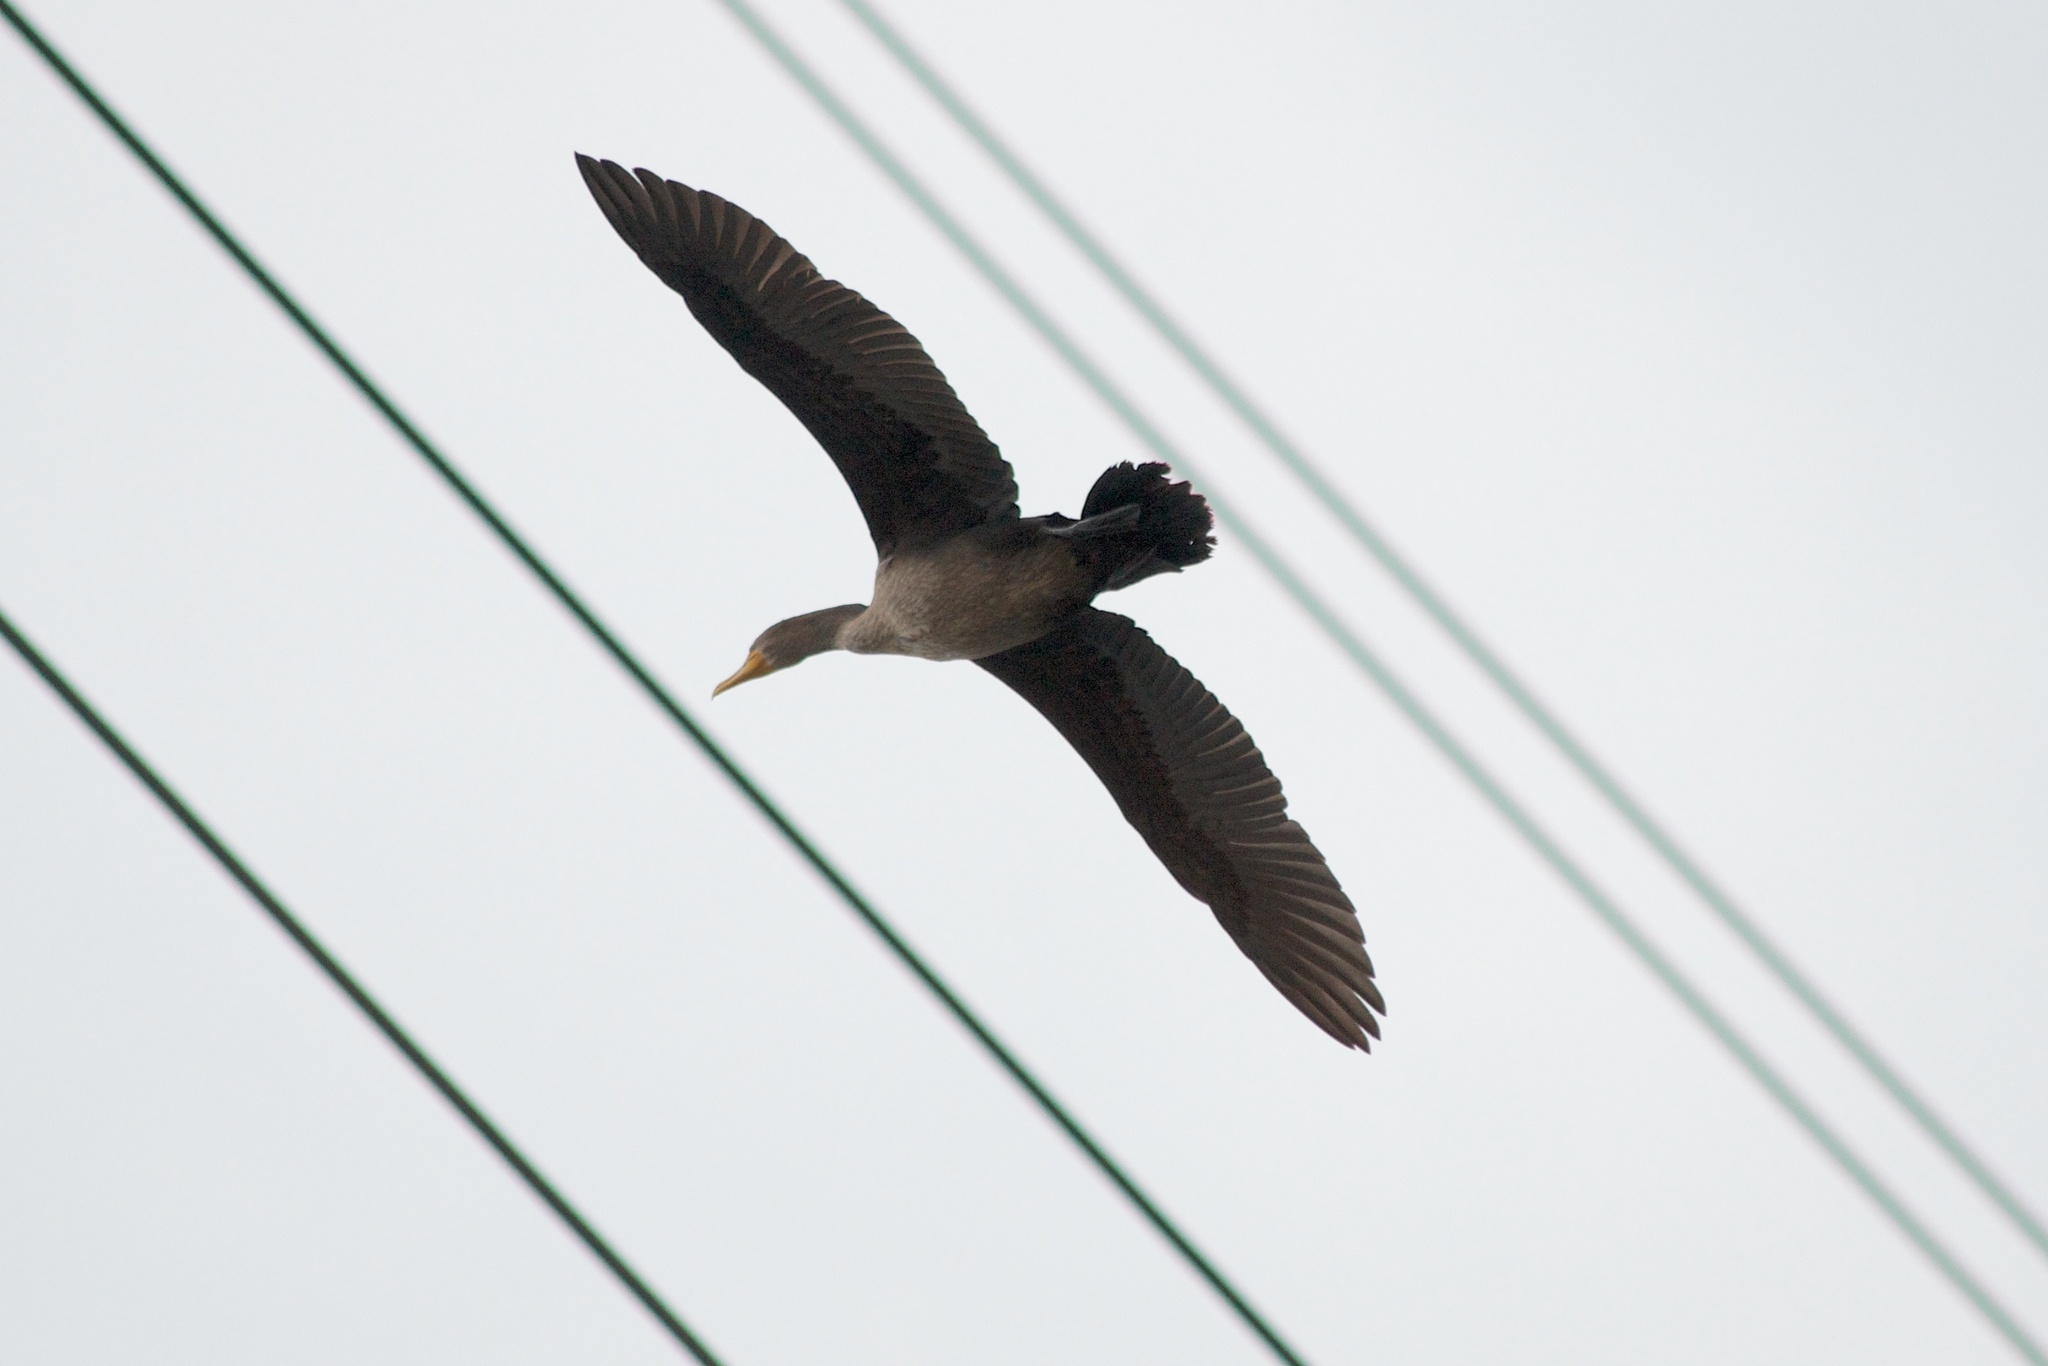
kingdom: Animalia
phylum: Chordata
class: Aves
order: Suliformes
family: Phalacrocoracidae
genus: Phalacrocorax
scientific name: Phalacrocorax auritus
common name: Double-crested cormorant
